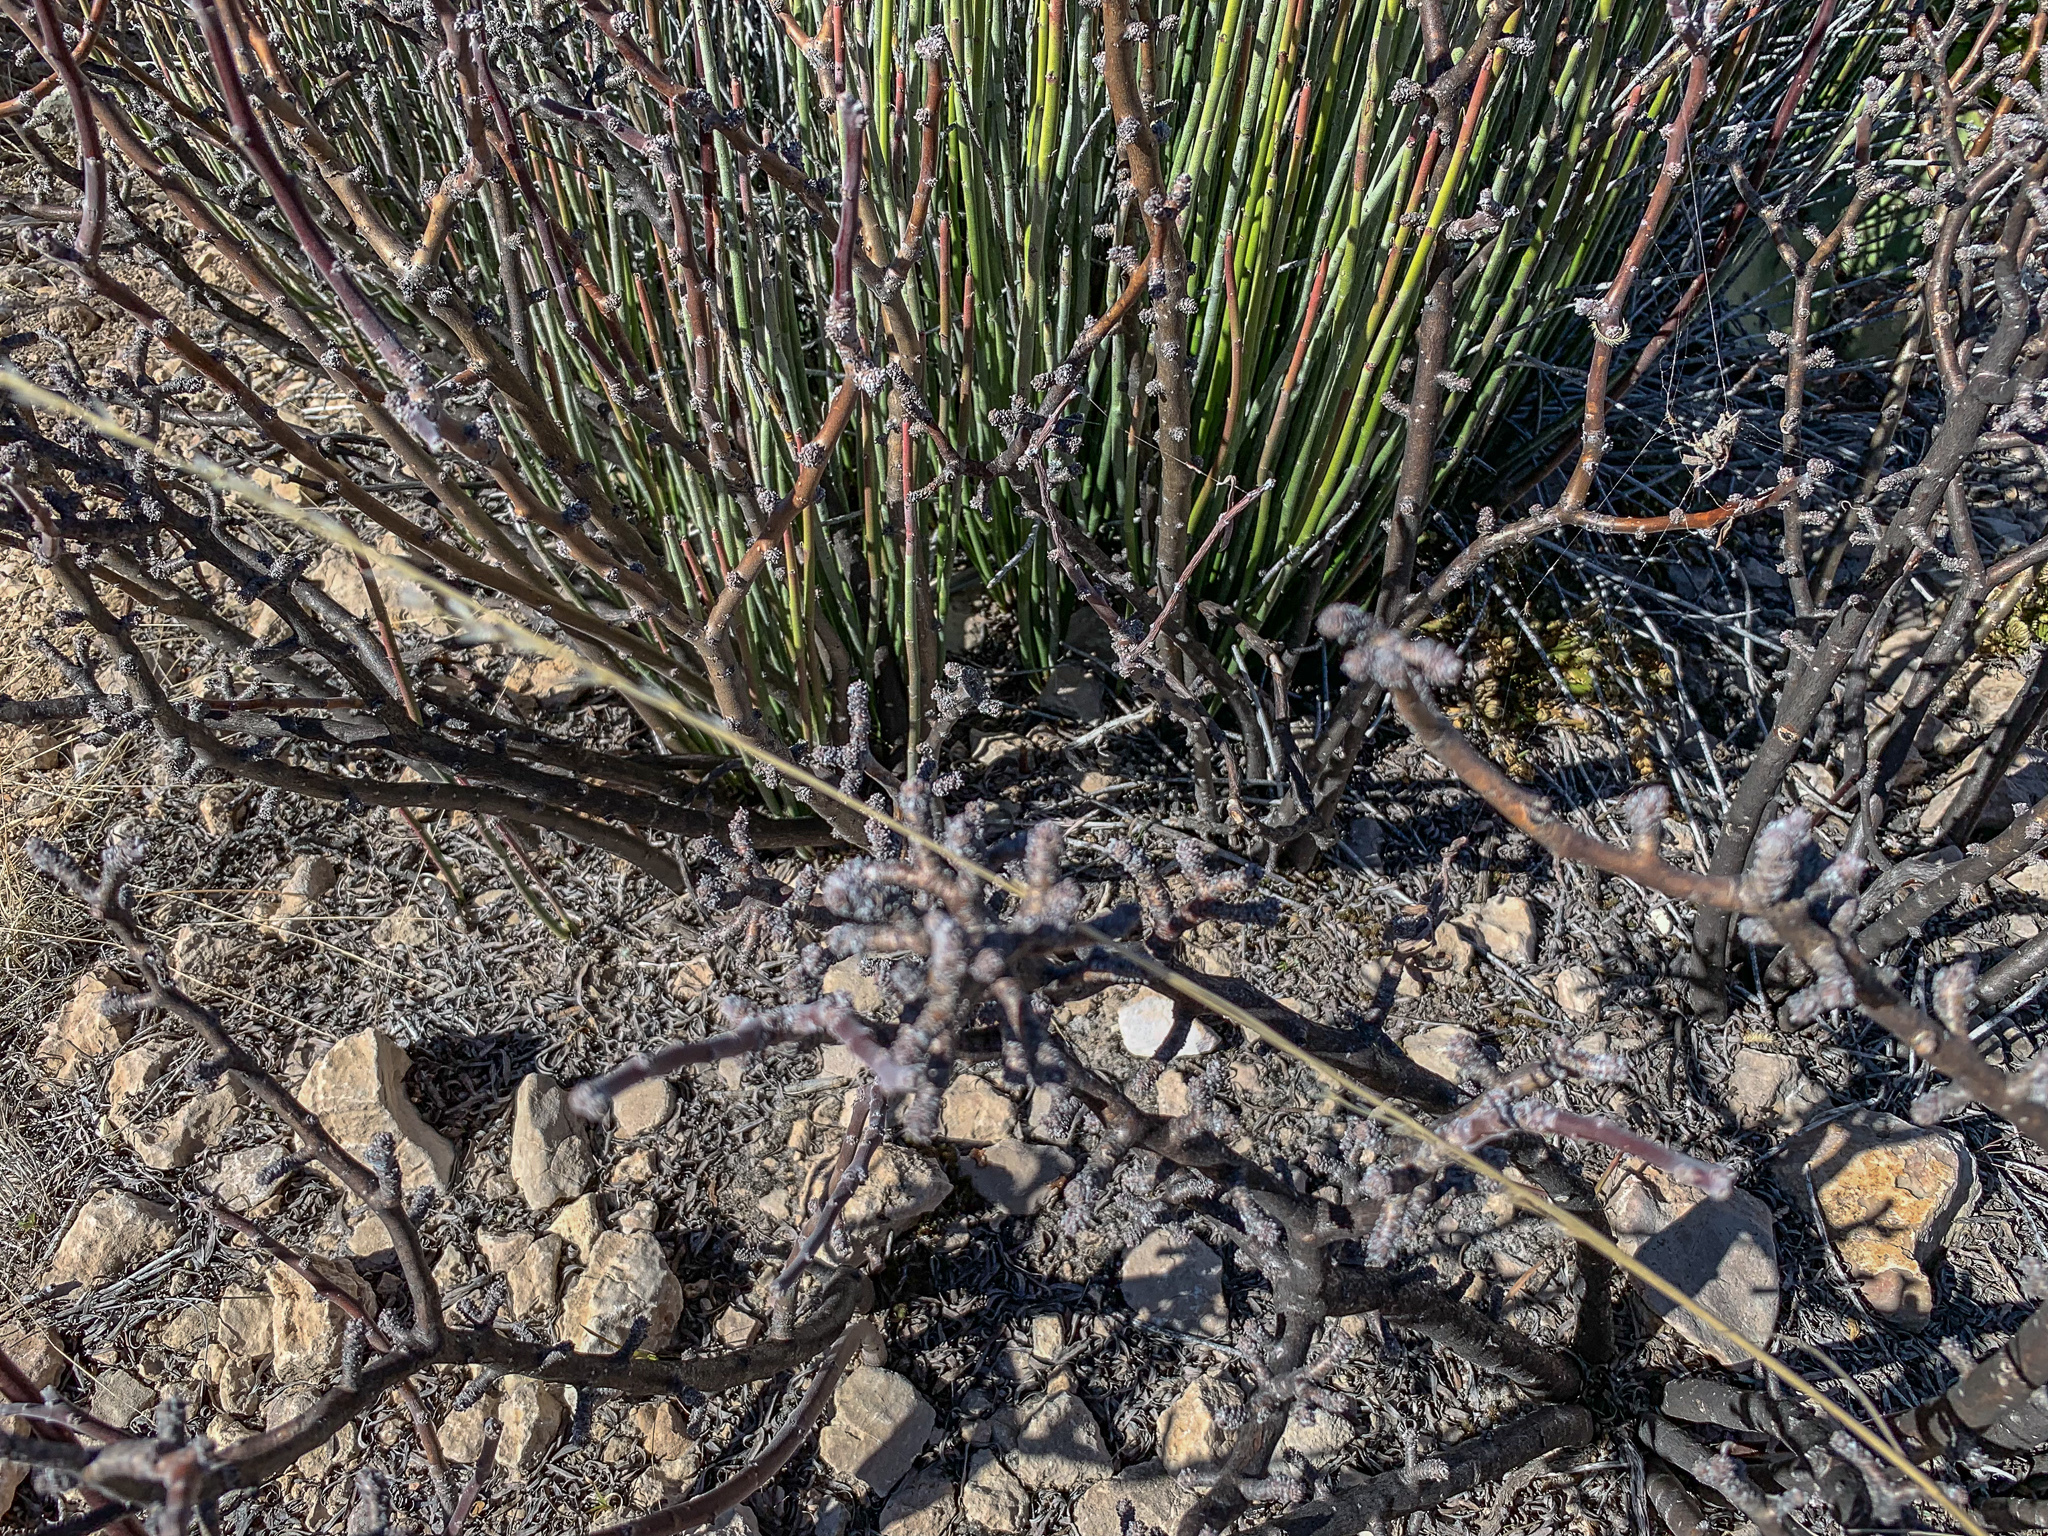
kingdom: Plantae
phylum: Tracheophyta
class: Magnoliopsida
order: Malpighiales
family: Euphorbiaceae
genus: Jatropha
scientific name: Jatropha dioica
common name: Leatherstem
